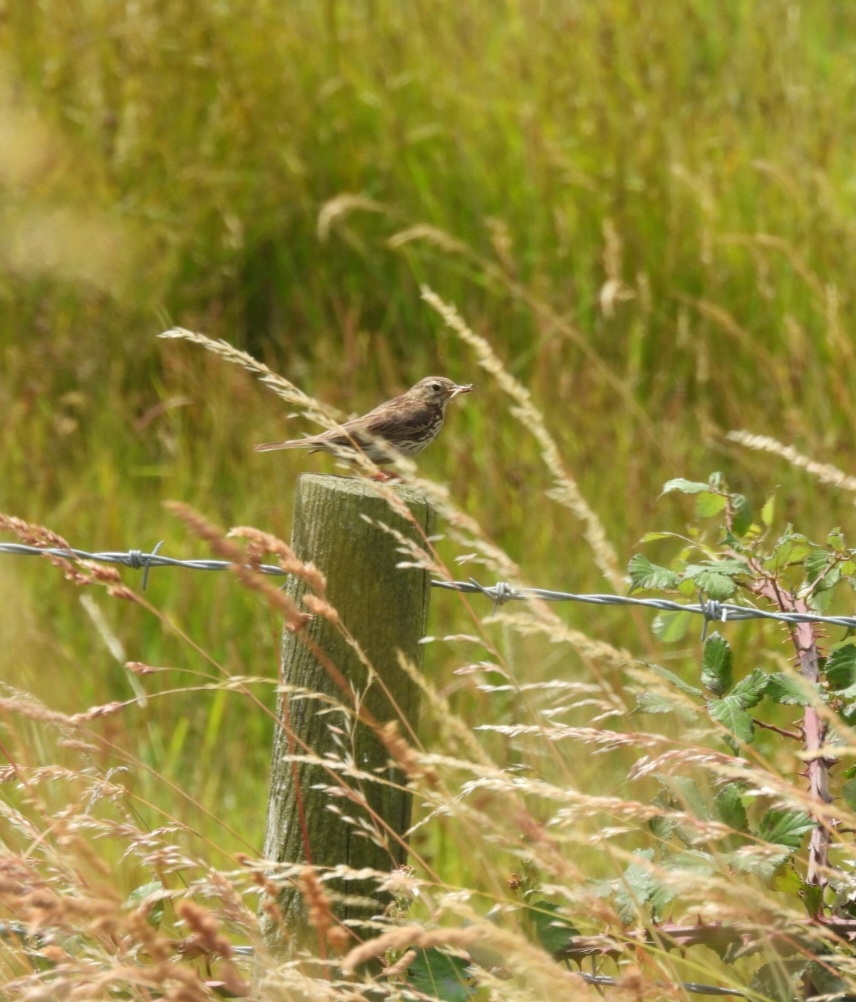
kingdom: Animalia
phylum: Chordata
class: Aves
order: Passeriformes
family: Motacillidae
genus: Anthus
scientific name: Anthus pratensis
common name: Meadow pipit
